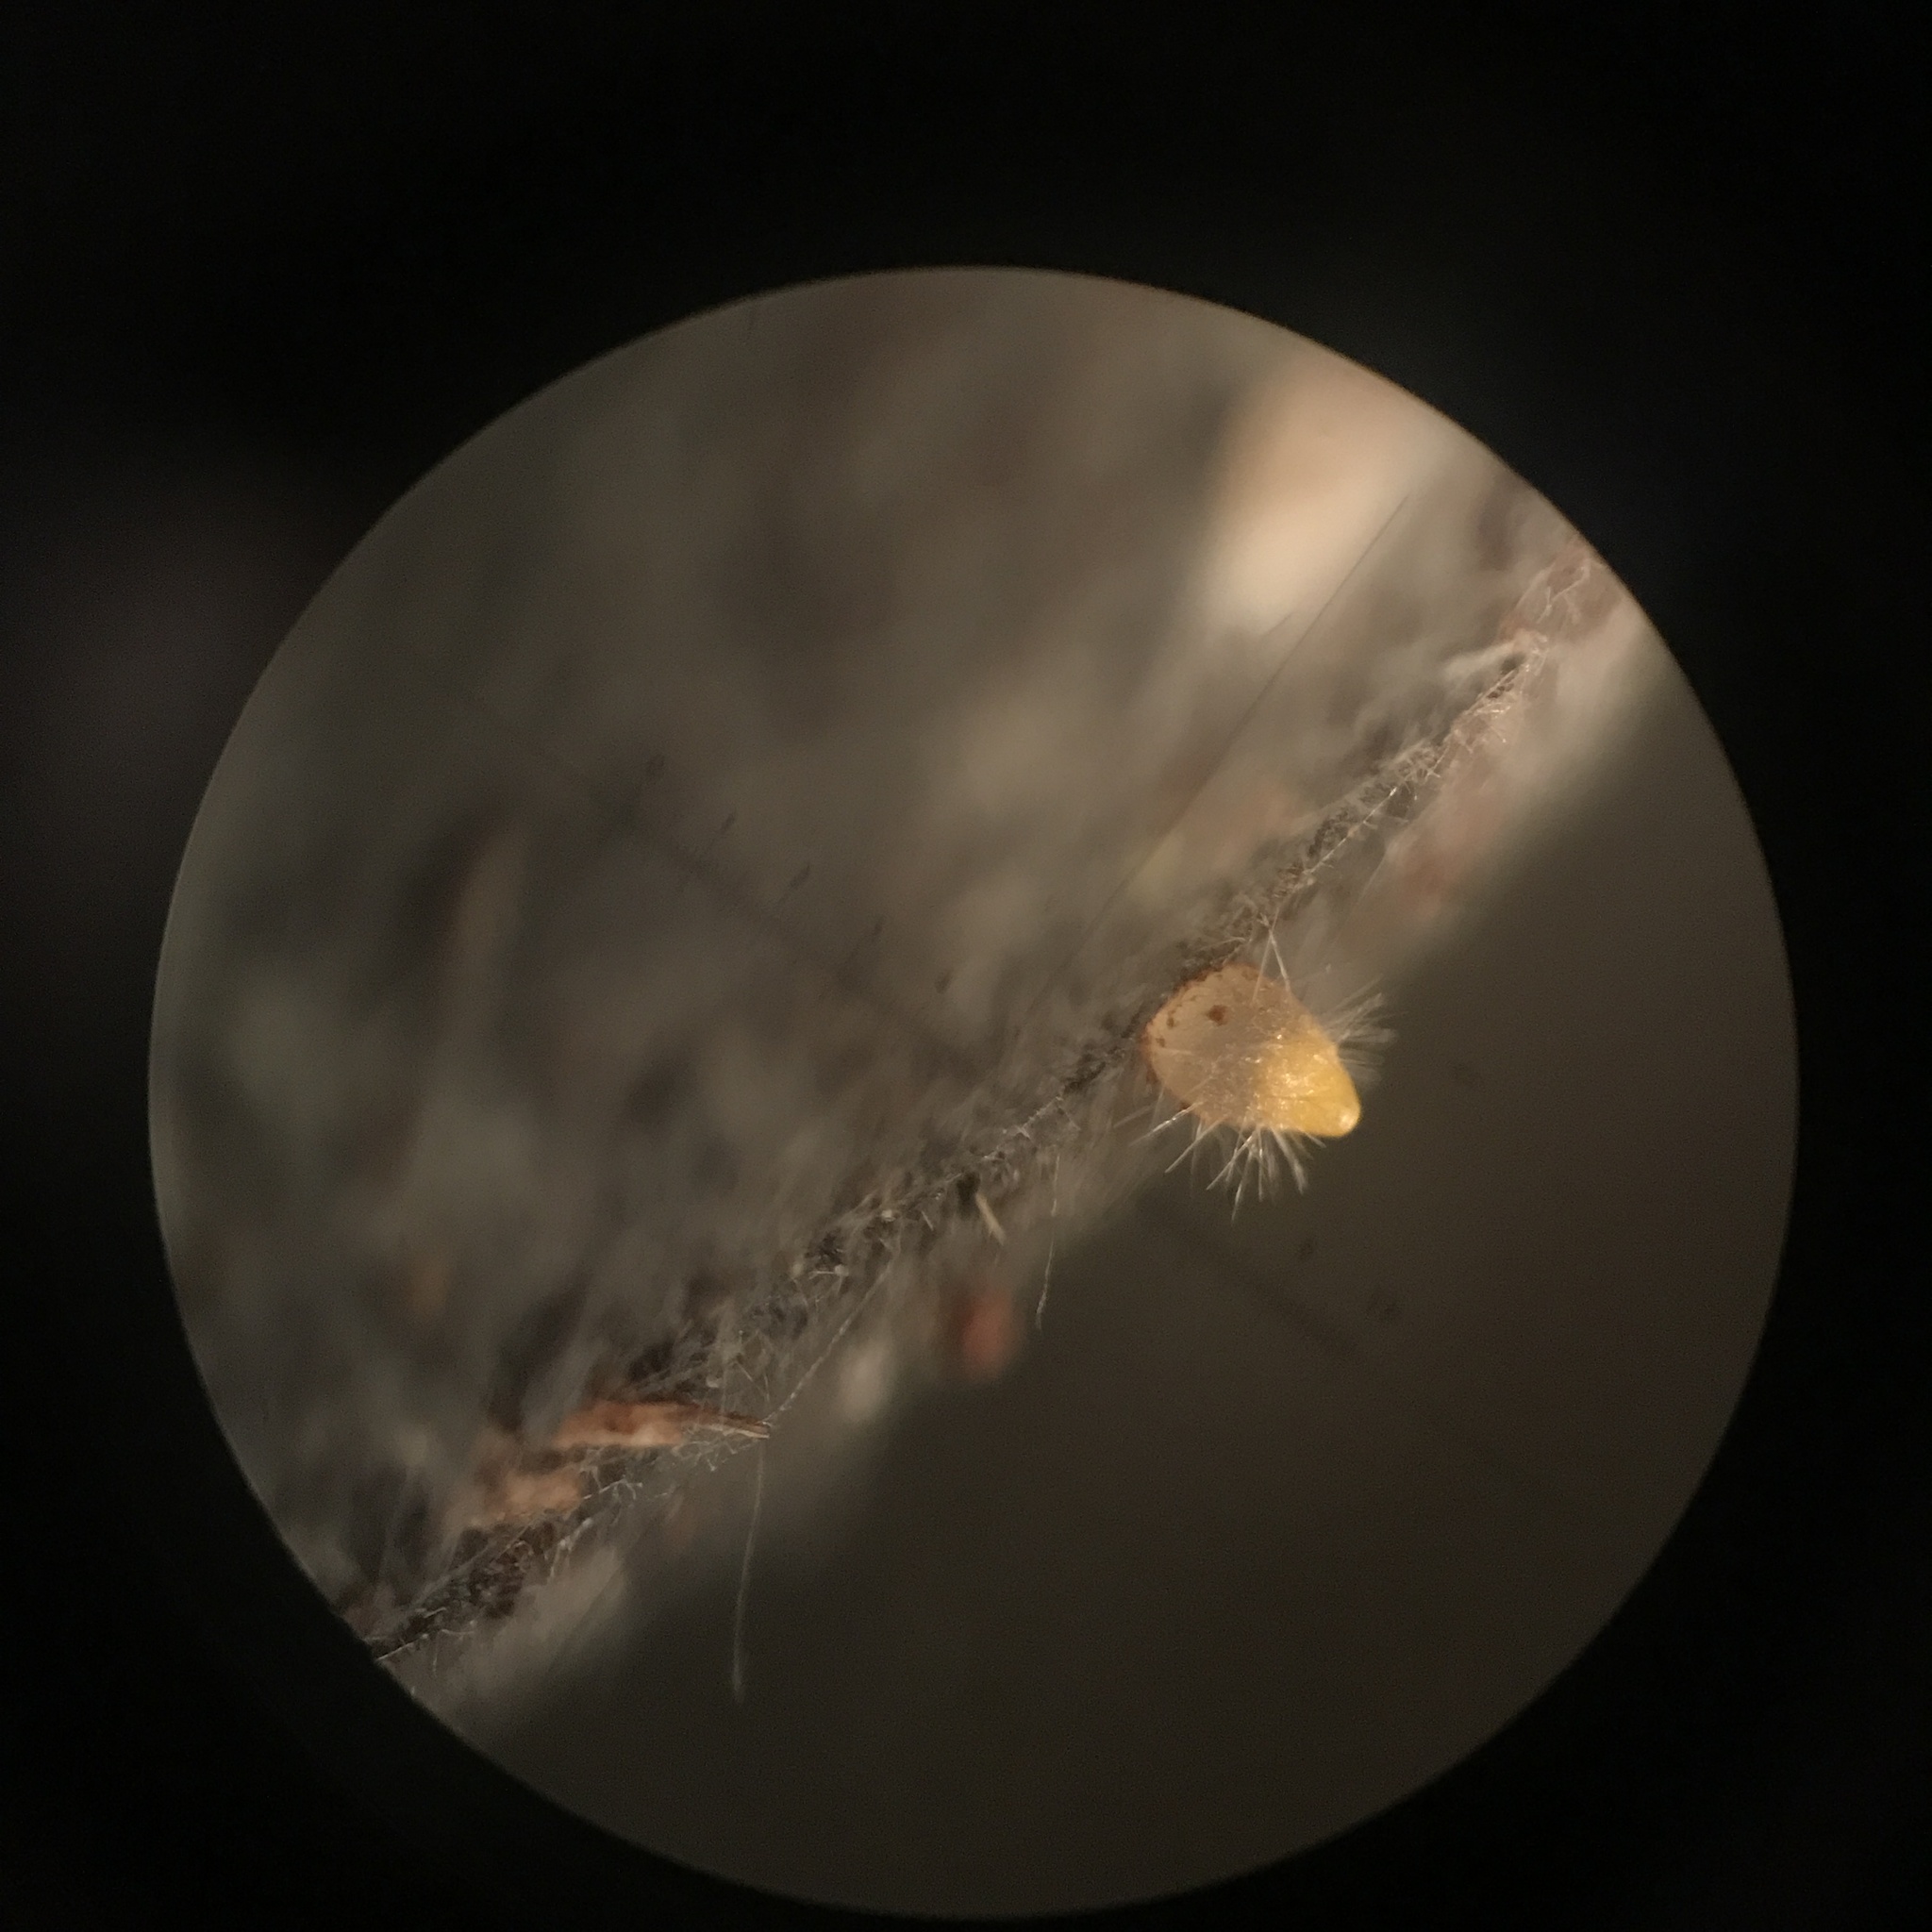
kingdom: Fungi
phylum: Ascomycota
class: Pezizomycetes
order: Pezizales
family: Ascodesmidaceae
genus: Trichobolus
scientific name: Trichobolus zukalii
